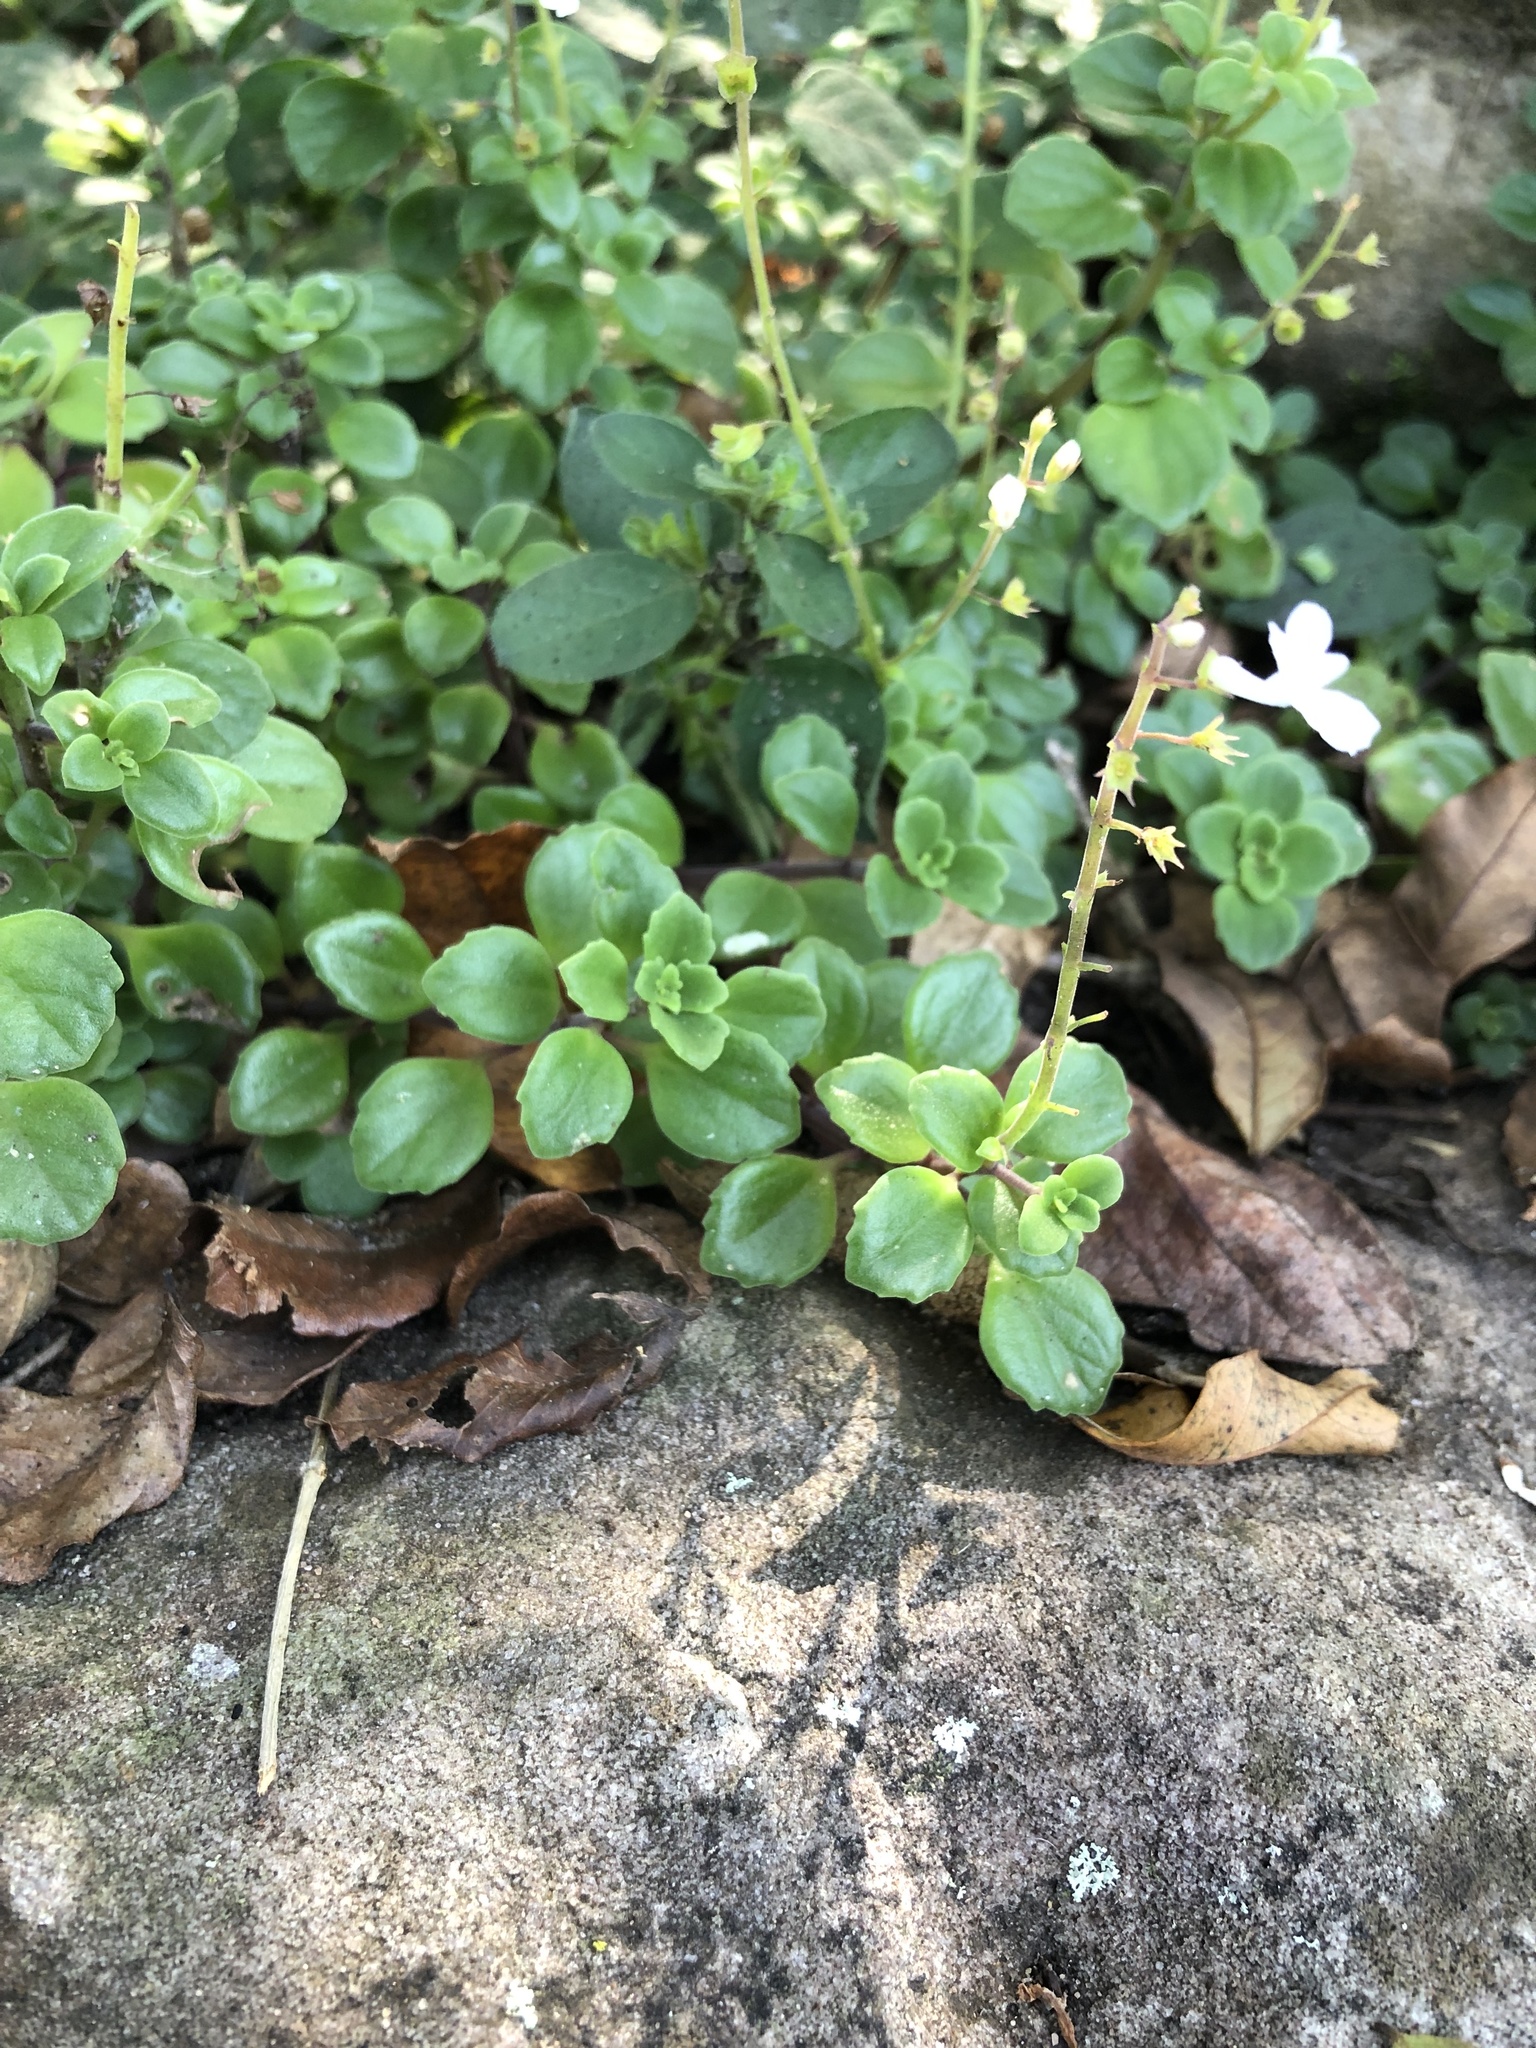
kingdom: Plantae
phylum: Tracheophyta
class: Magnoliopsida
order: Lamiales
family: Lamiaceae
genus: Plectranthus
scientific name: Plectranthus purpuratus
